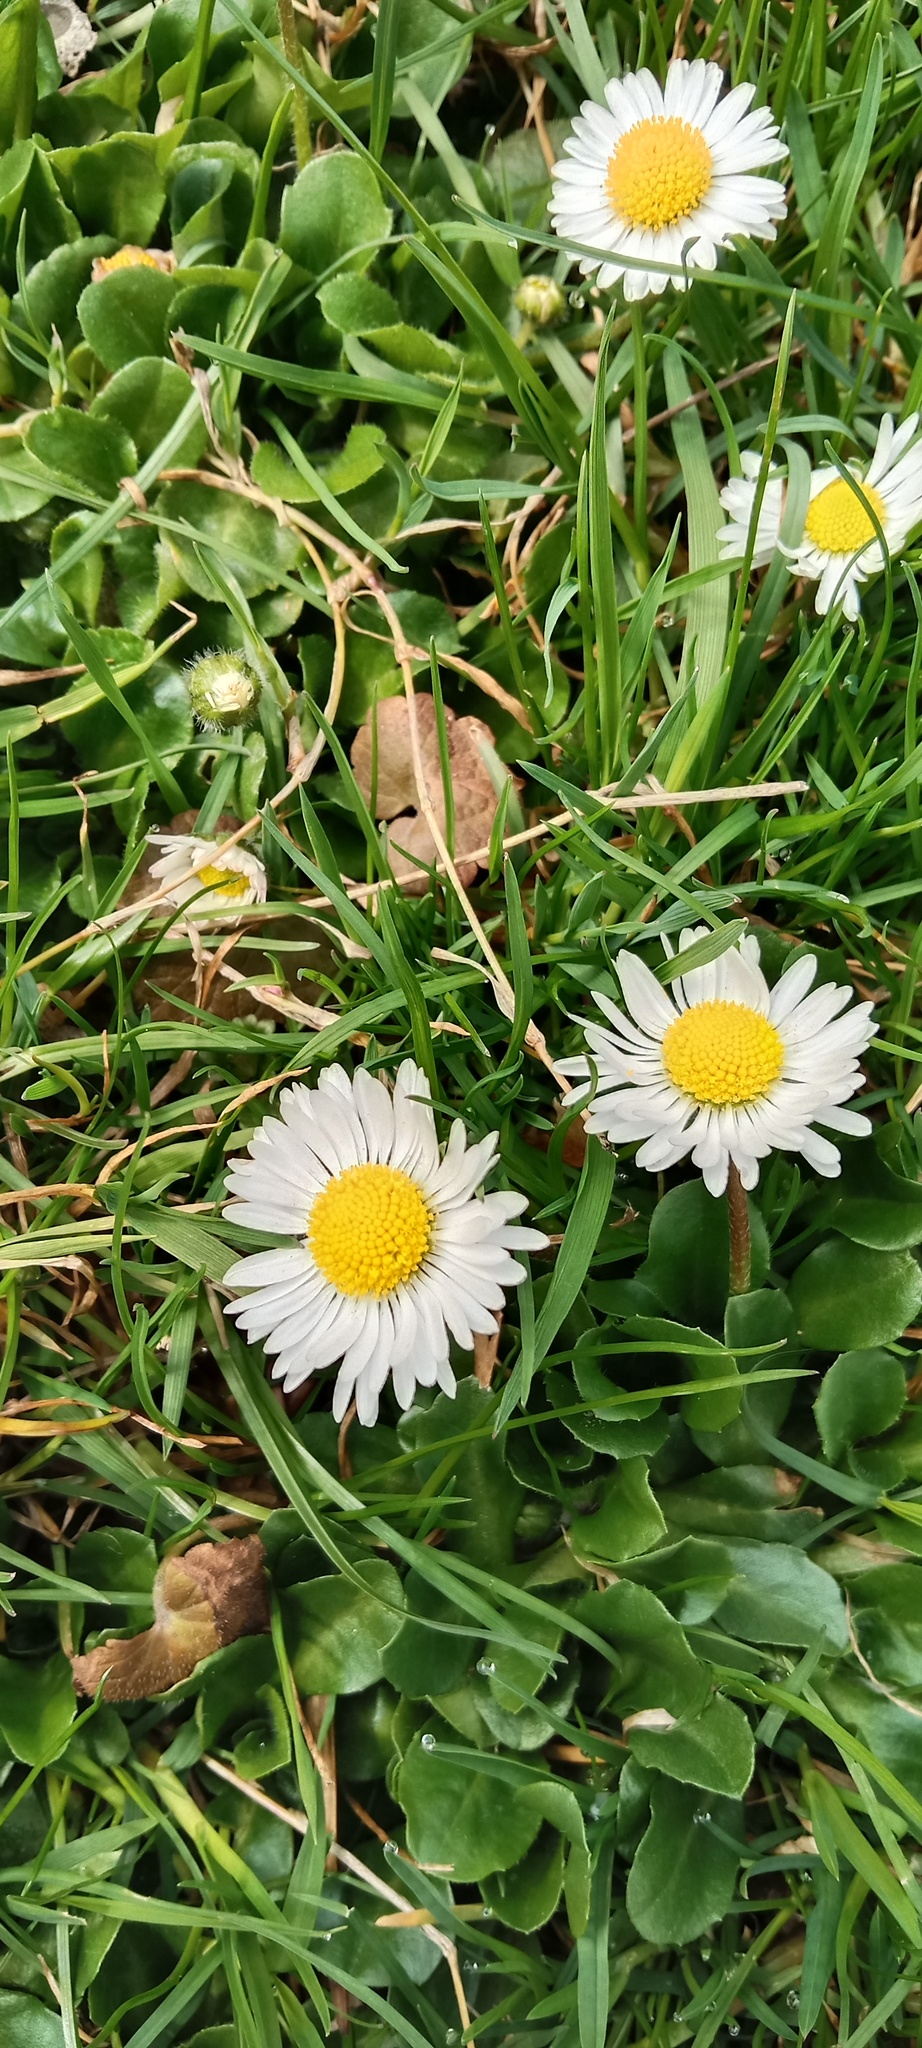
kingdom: Plantae
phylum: Tracheophyta
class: Magnoliopsida
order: Asterales
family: Asteraceae
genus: Bellis
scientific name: Bellis perennis
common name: Lawndaisy
